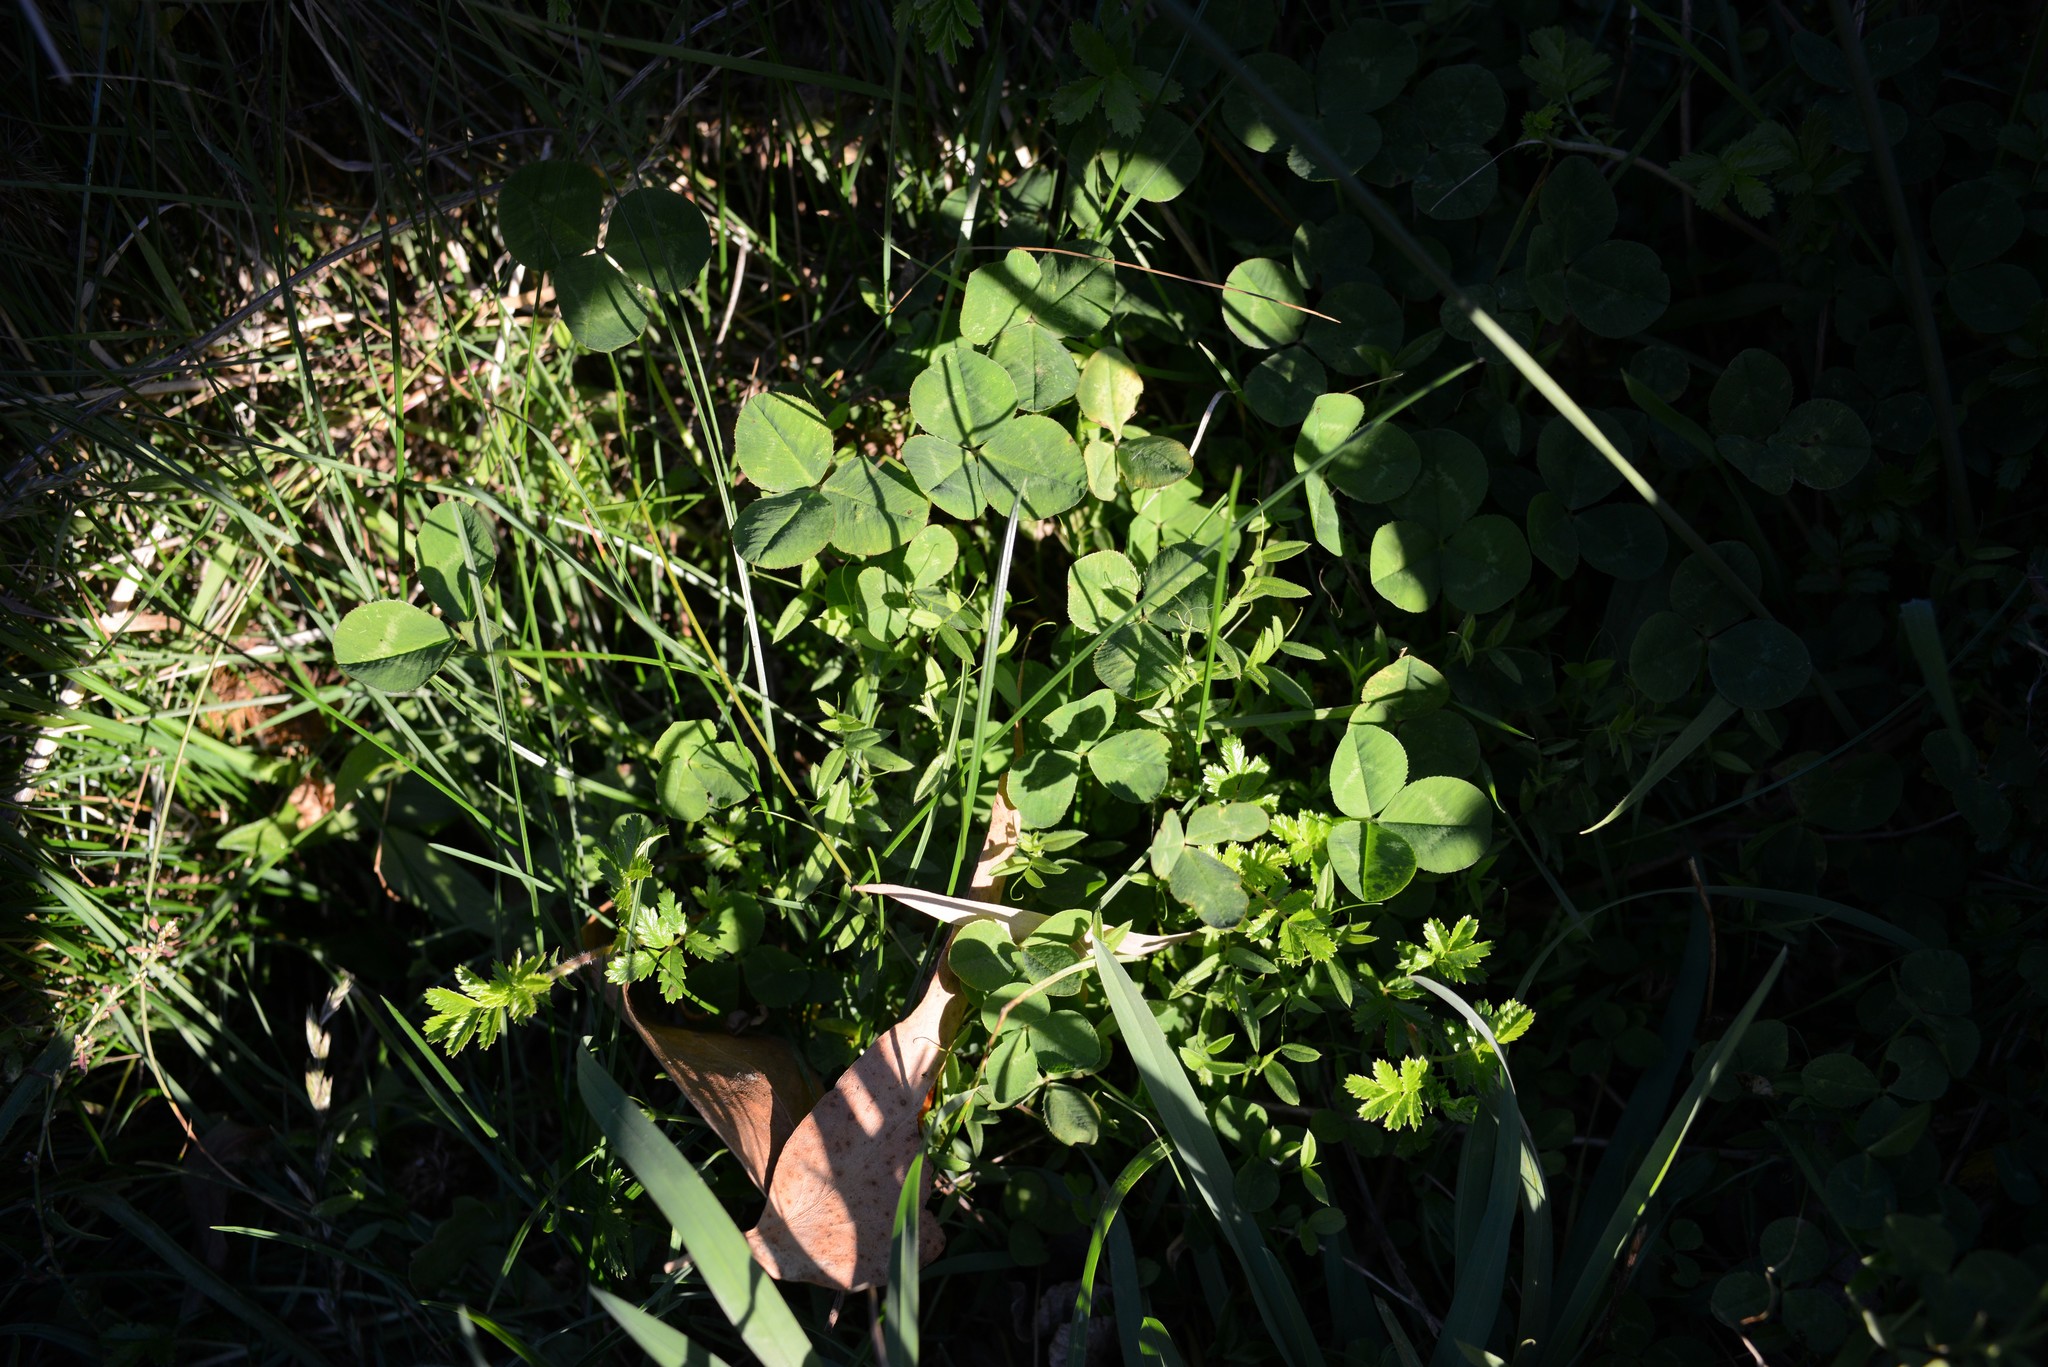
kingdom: Plantae
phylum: Tracheophyta
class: Magnoliopsida
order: Fabales
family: Fabaceae
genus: Trifolium
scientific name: Trifolium repens
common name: White clover
